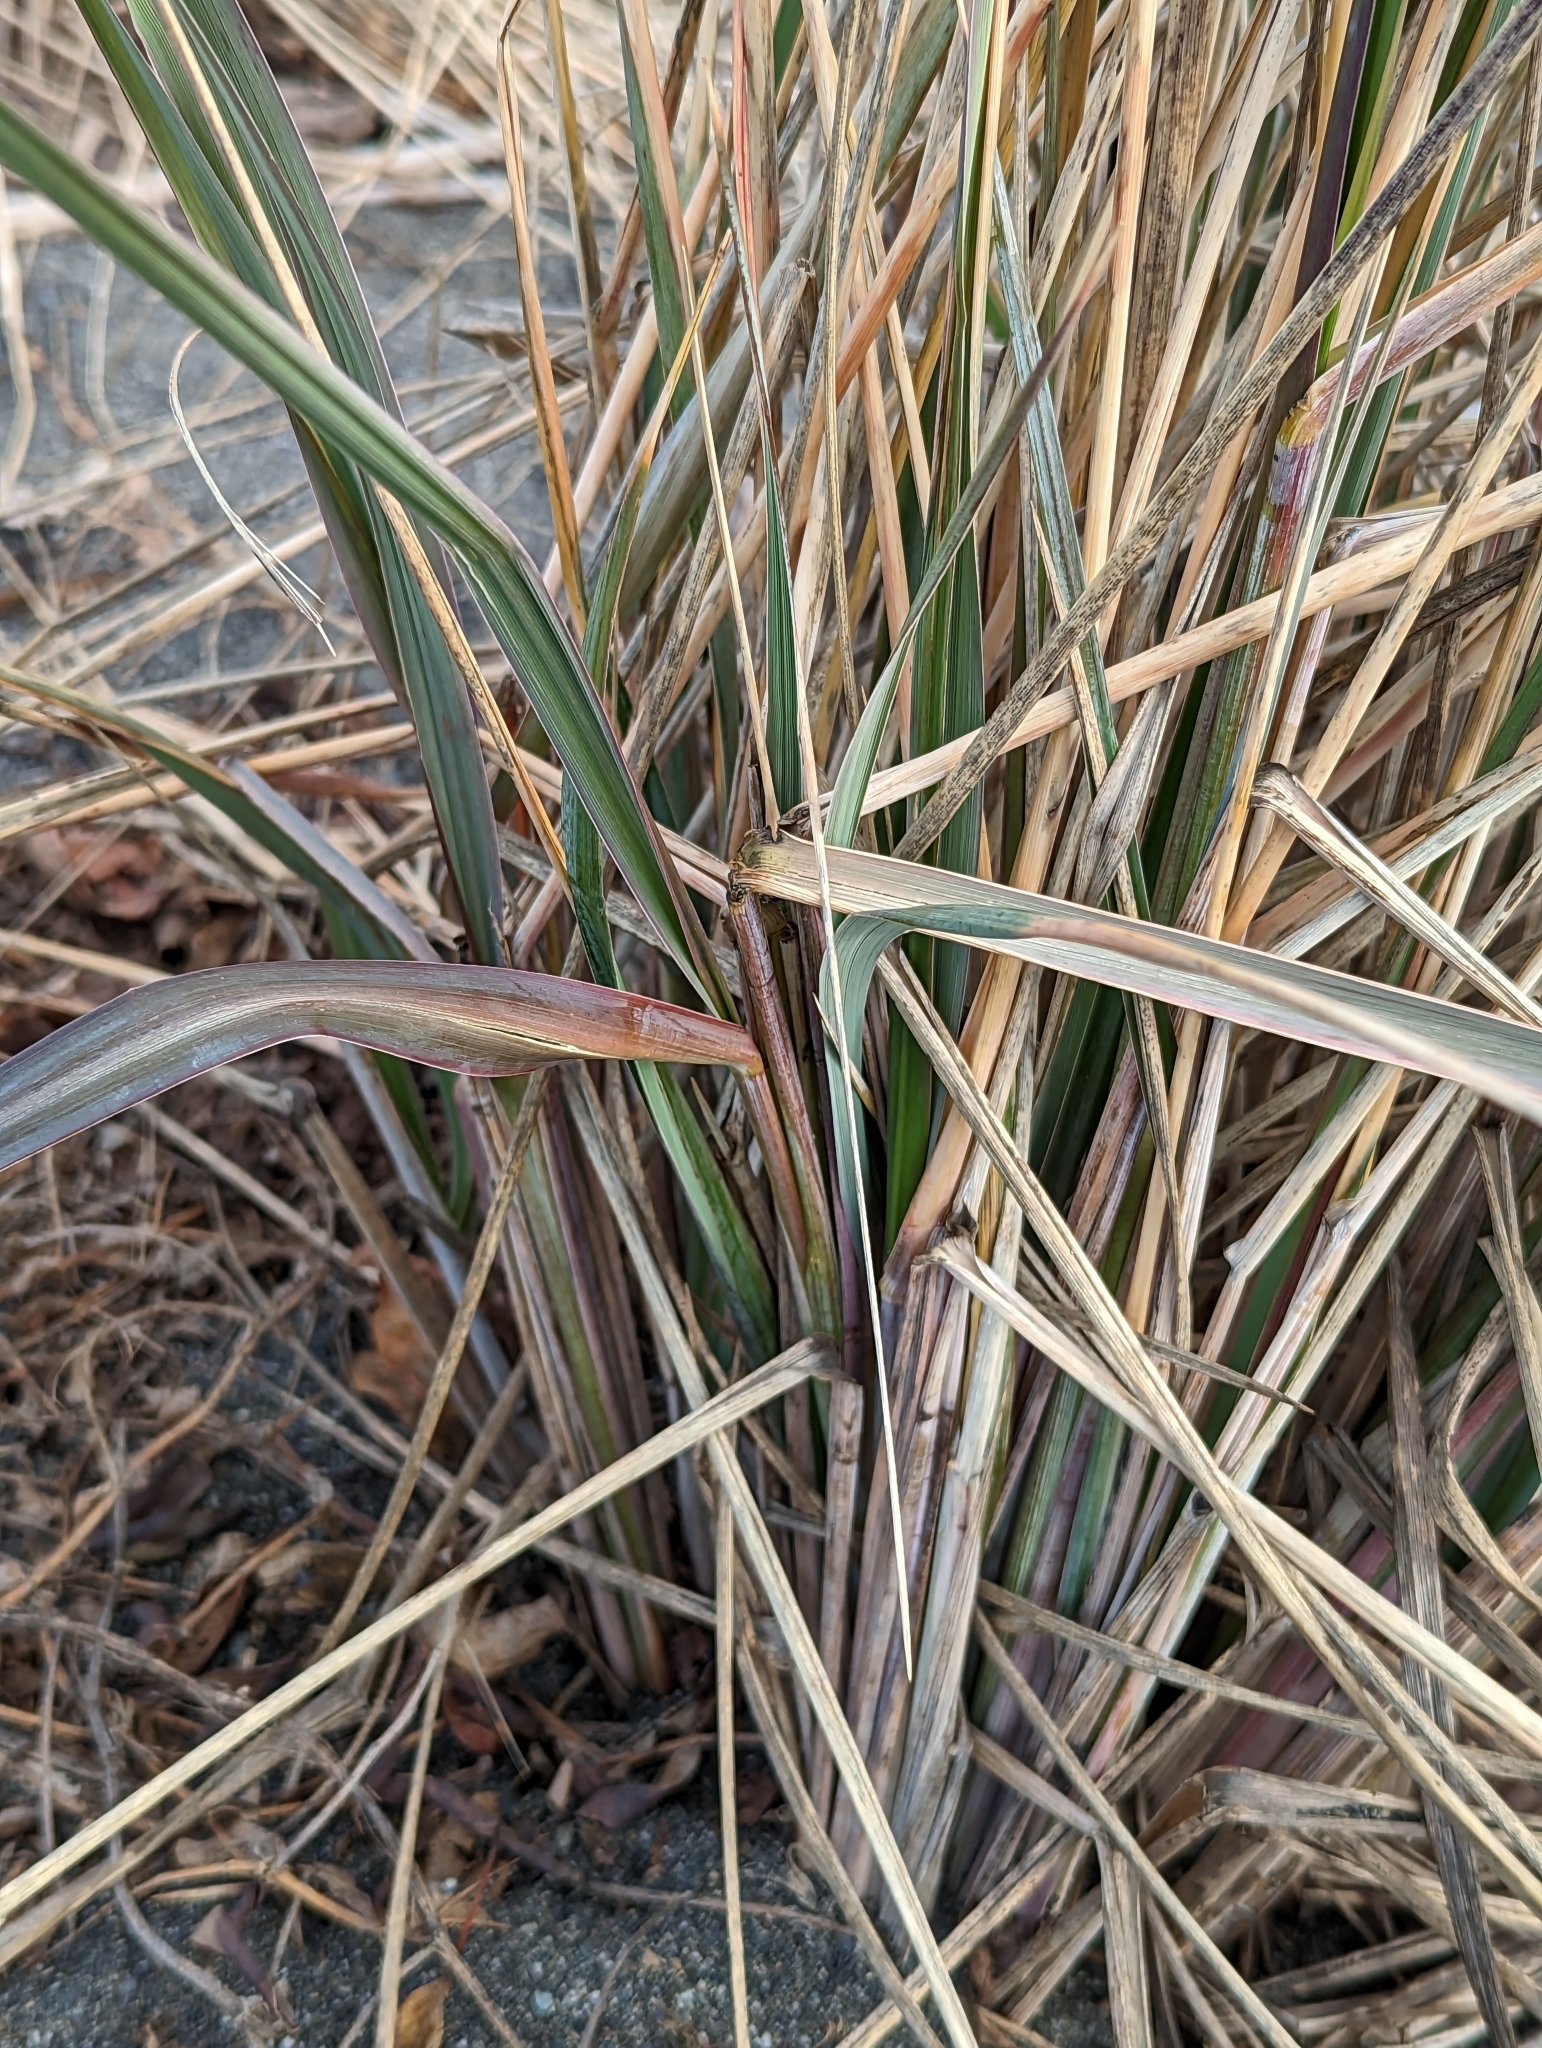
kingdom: Plantae
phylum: Tracheophyta
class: Liliopsida
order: Poales
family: Poaceae
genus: Leymus
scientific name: Leymus mollis
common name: American dune grass
